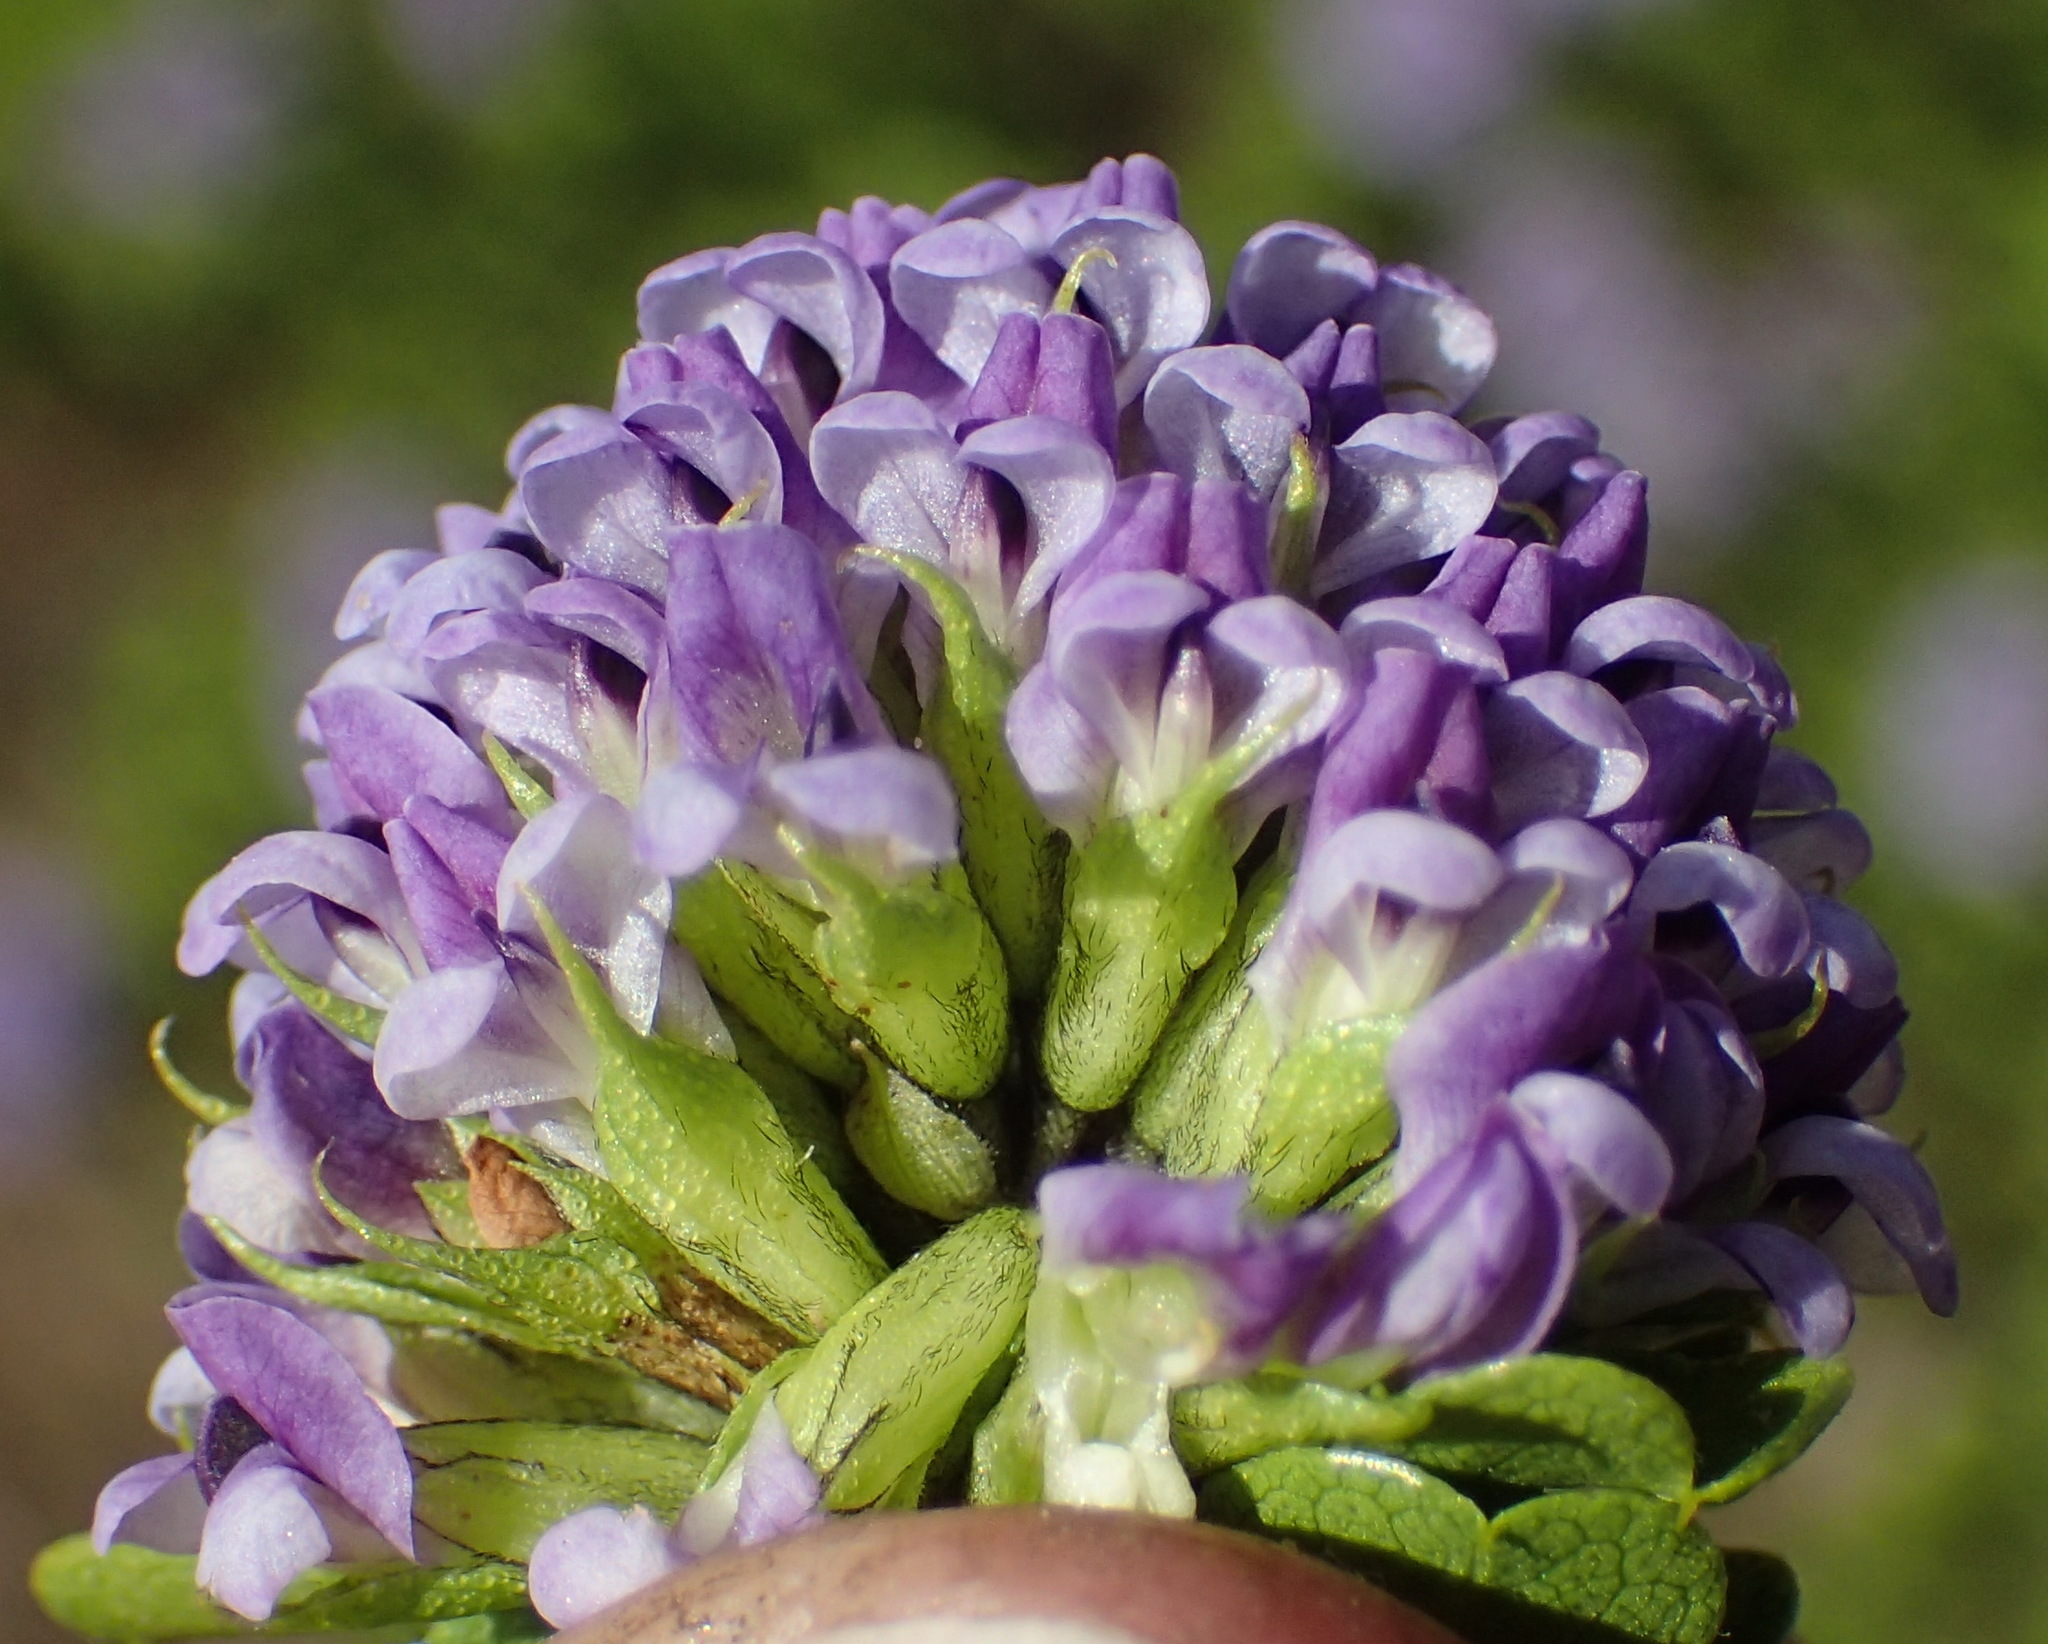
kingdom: Plantae
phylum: Tracheophyta
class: Magnoliopsida
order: Fabales
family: Fabaceae
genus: Psoralea
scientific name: Psoralea acuminata
